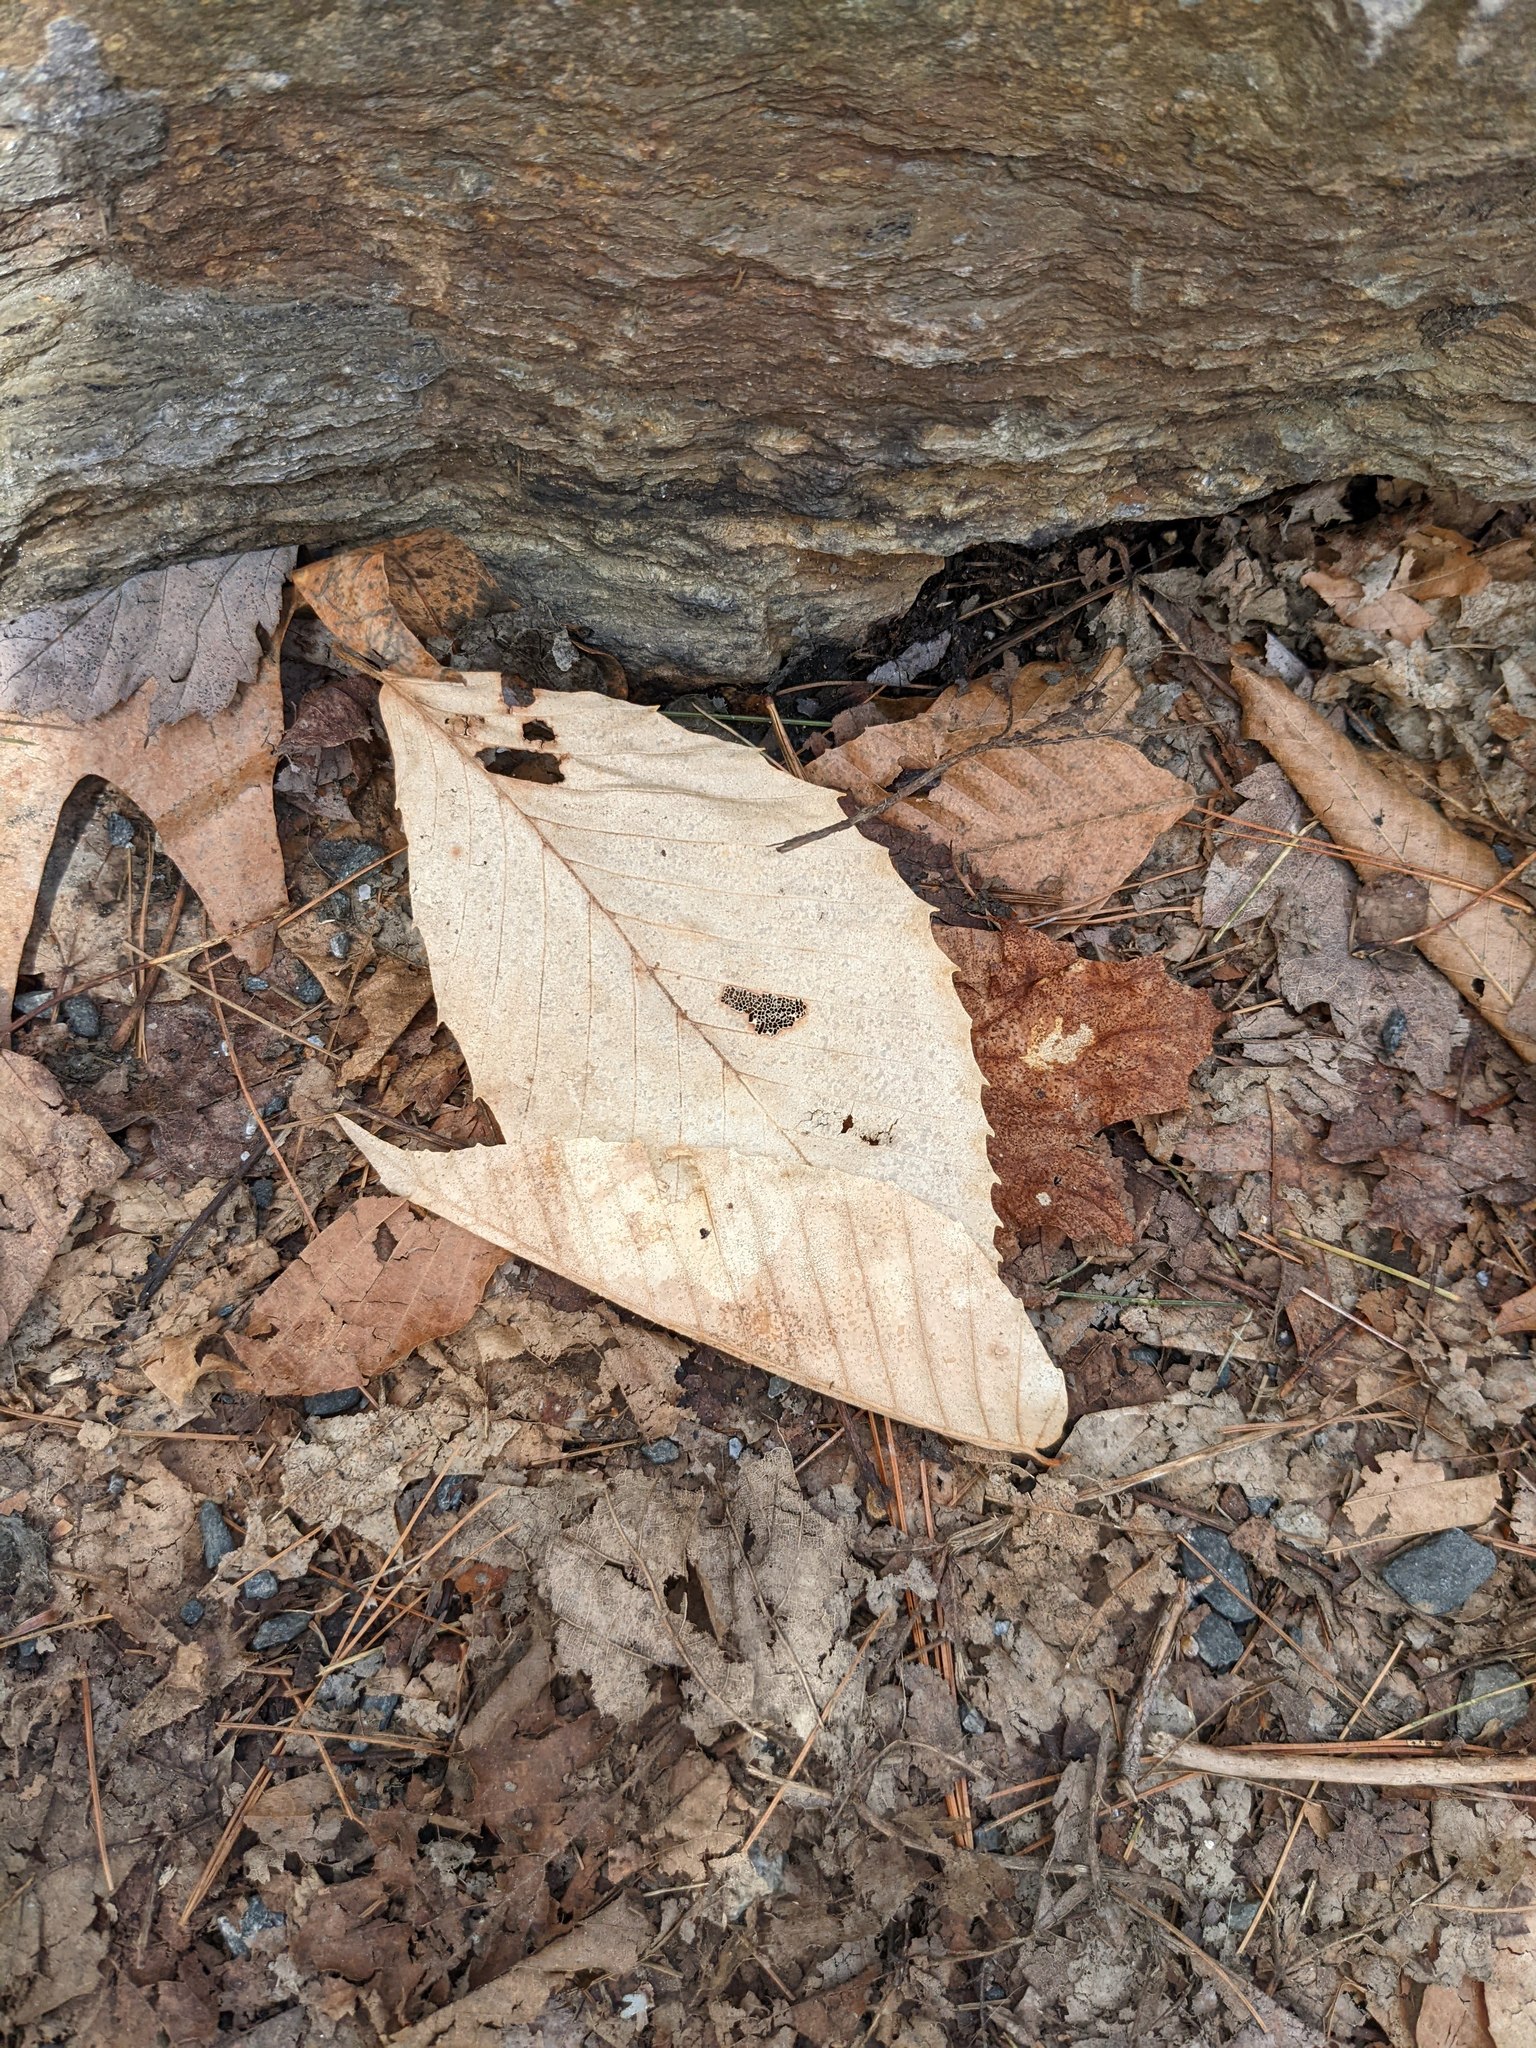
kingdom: Plantae
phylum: Tracheophyta
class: Magnoliopsida
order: Fagales
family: Fagaceae
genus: Fagus
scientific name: Fagus grandifolia
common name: American beech
